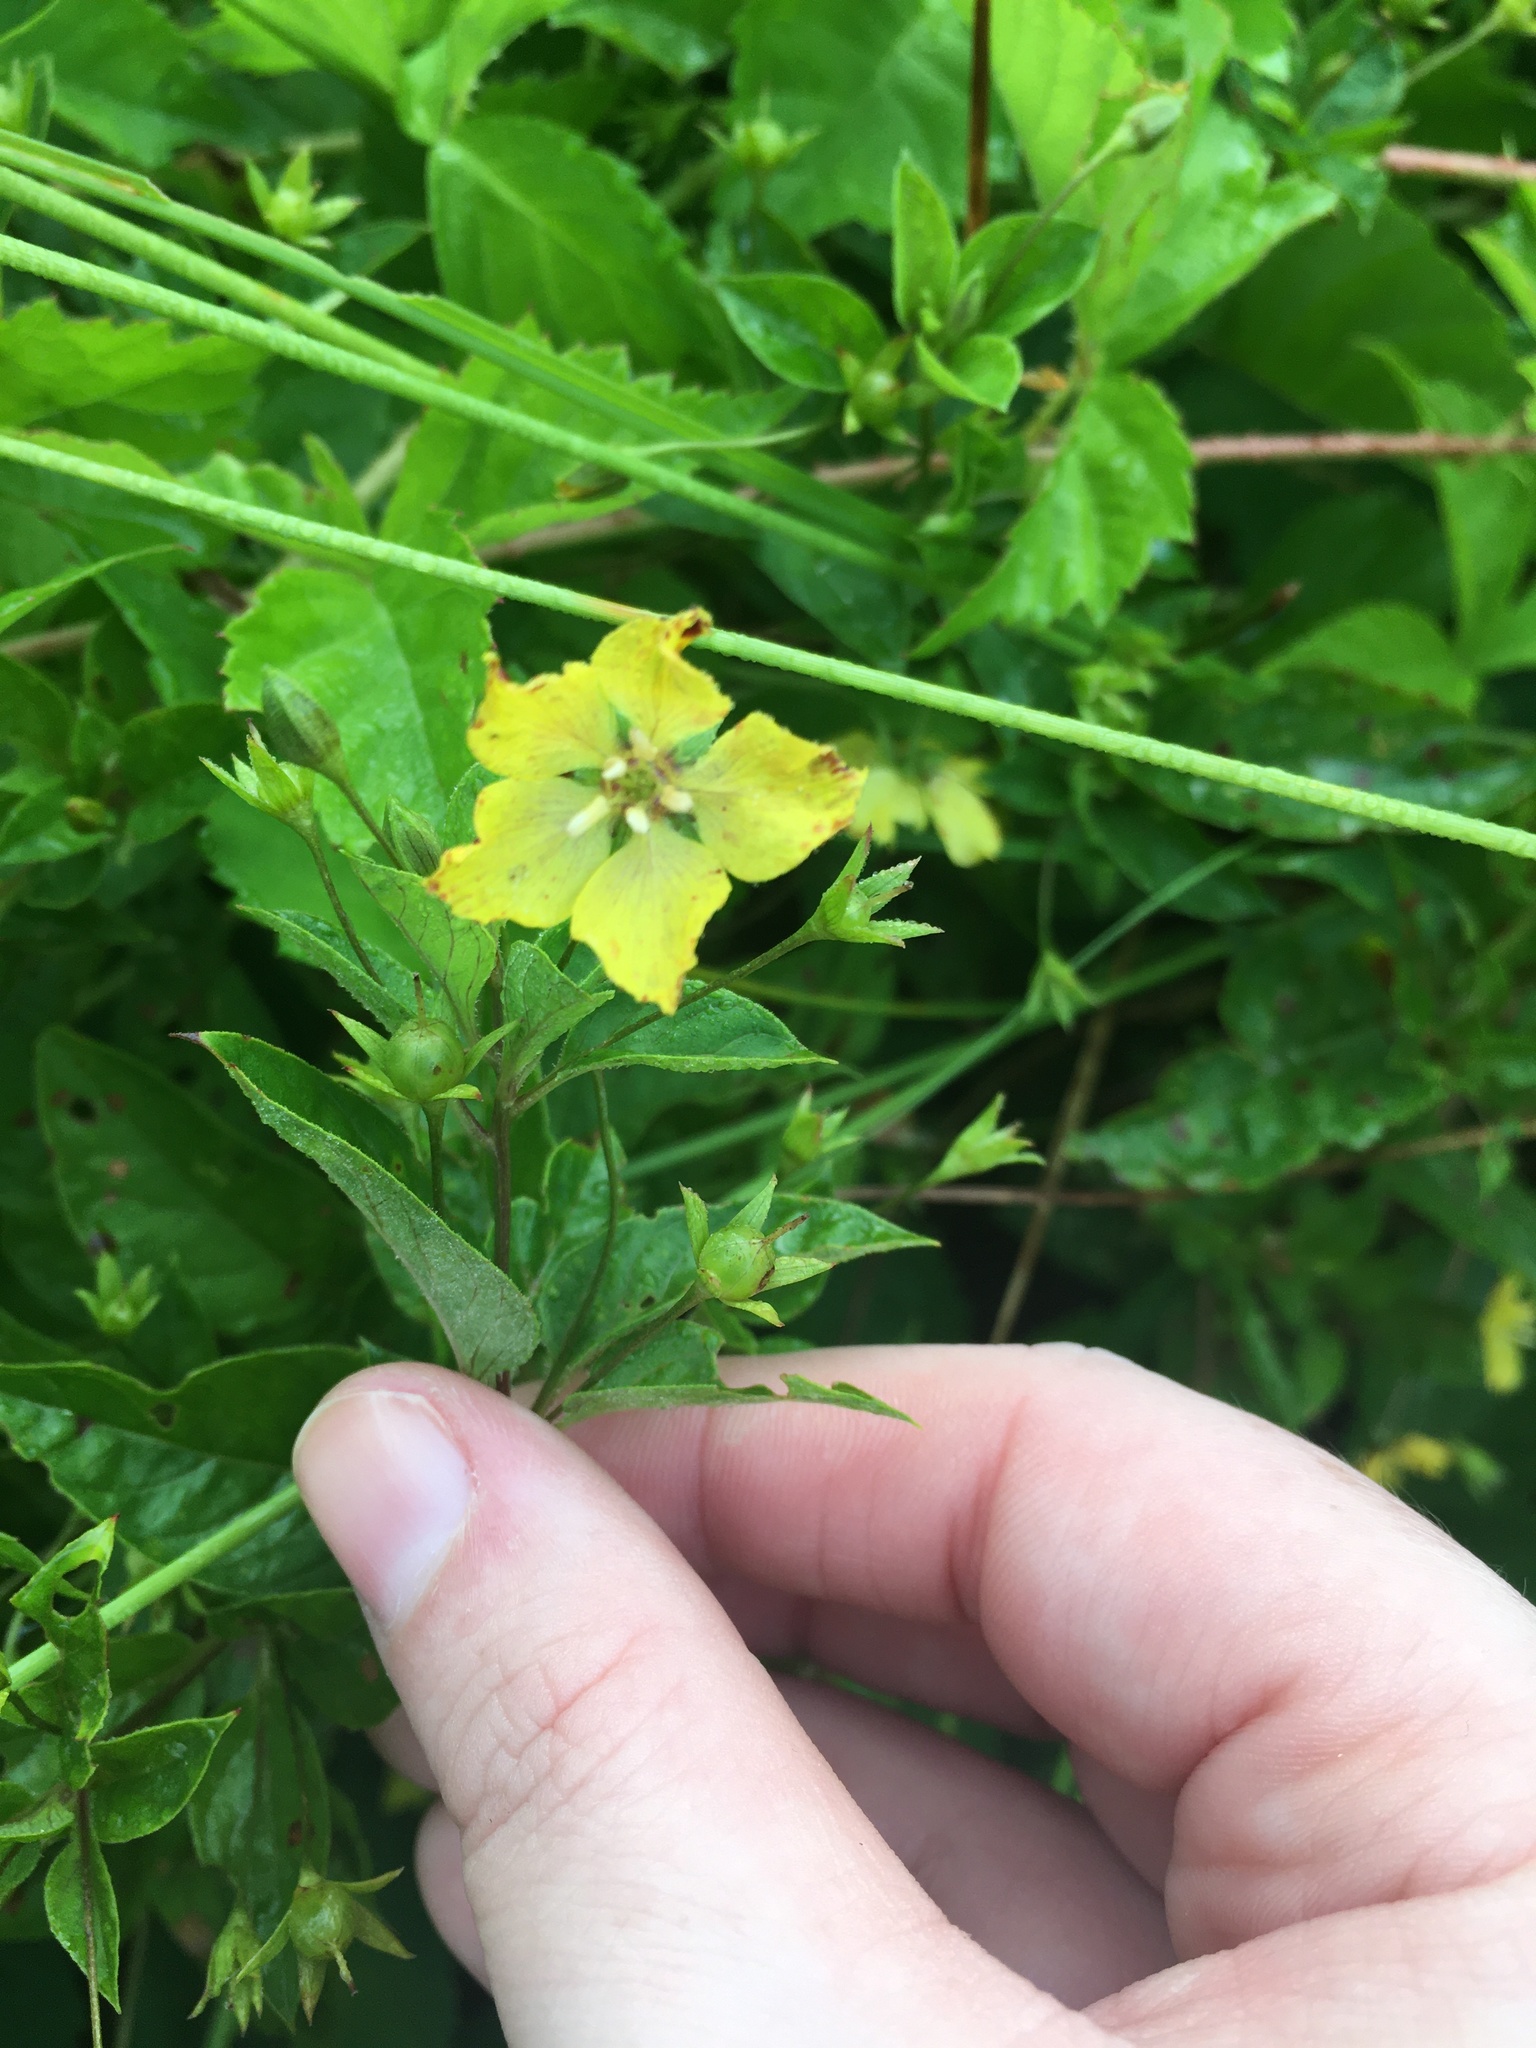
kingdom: Plantae
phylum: Tracheophyta
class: Magnoliopsida
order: Ericales
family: Primulaceae
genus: Lysimachia
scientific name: Lysimachia ciliata
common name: Fringed loosestrife
